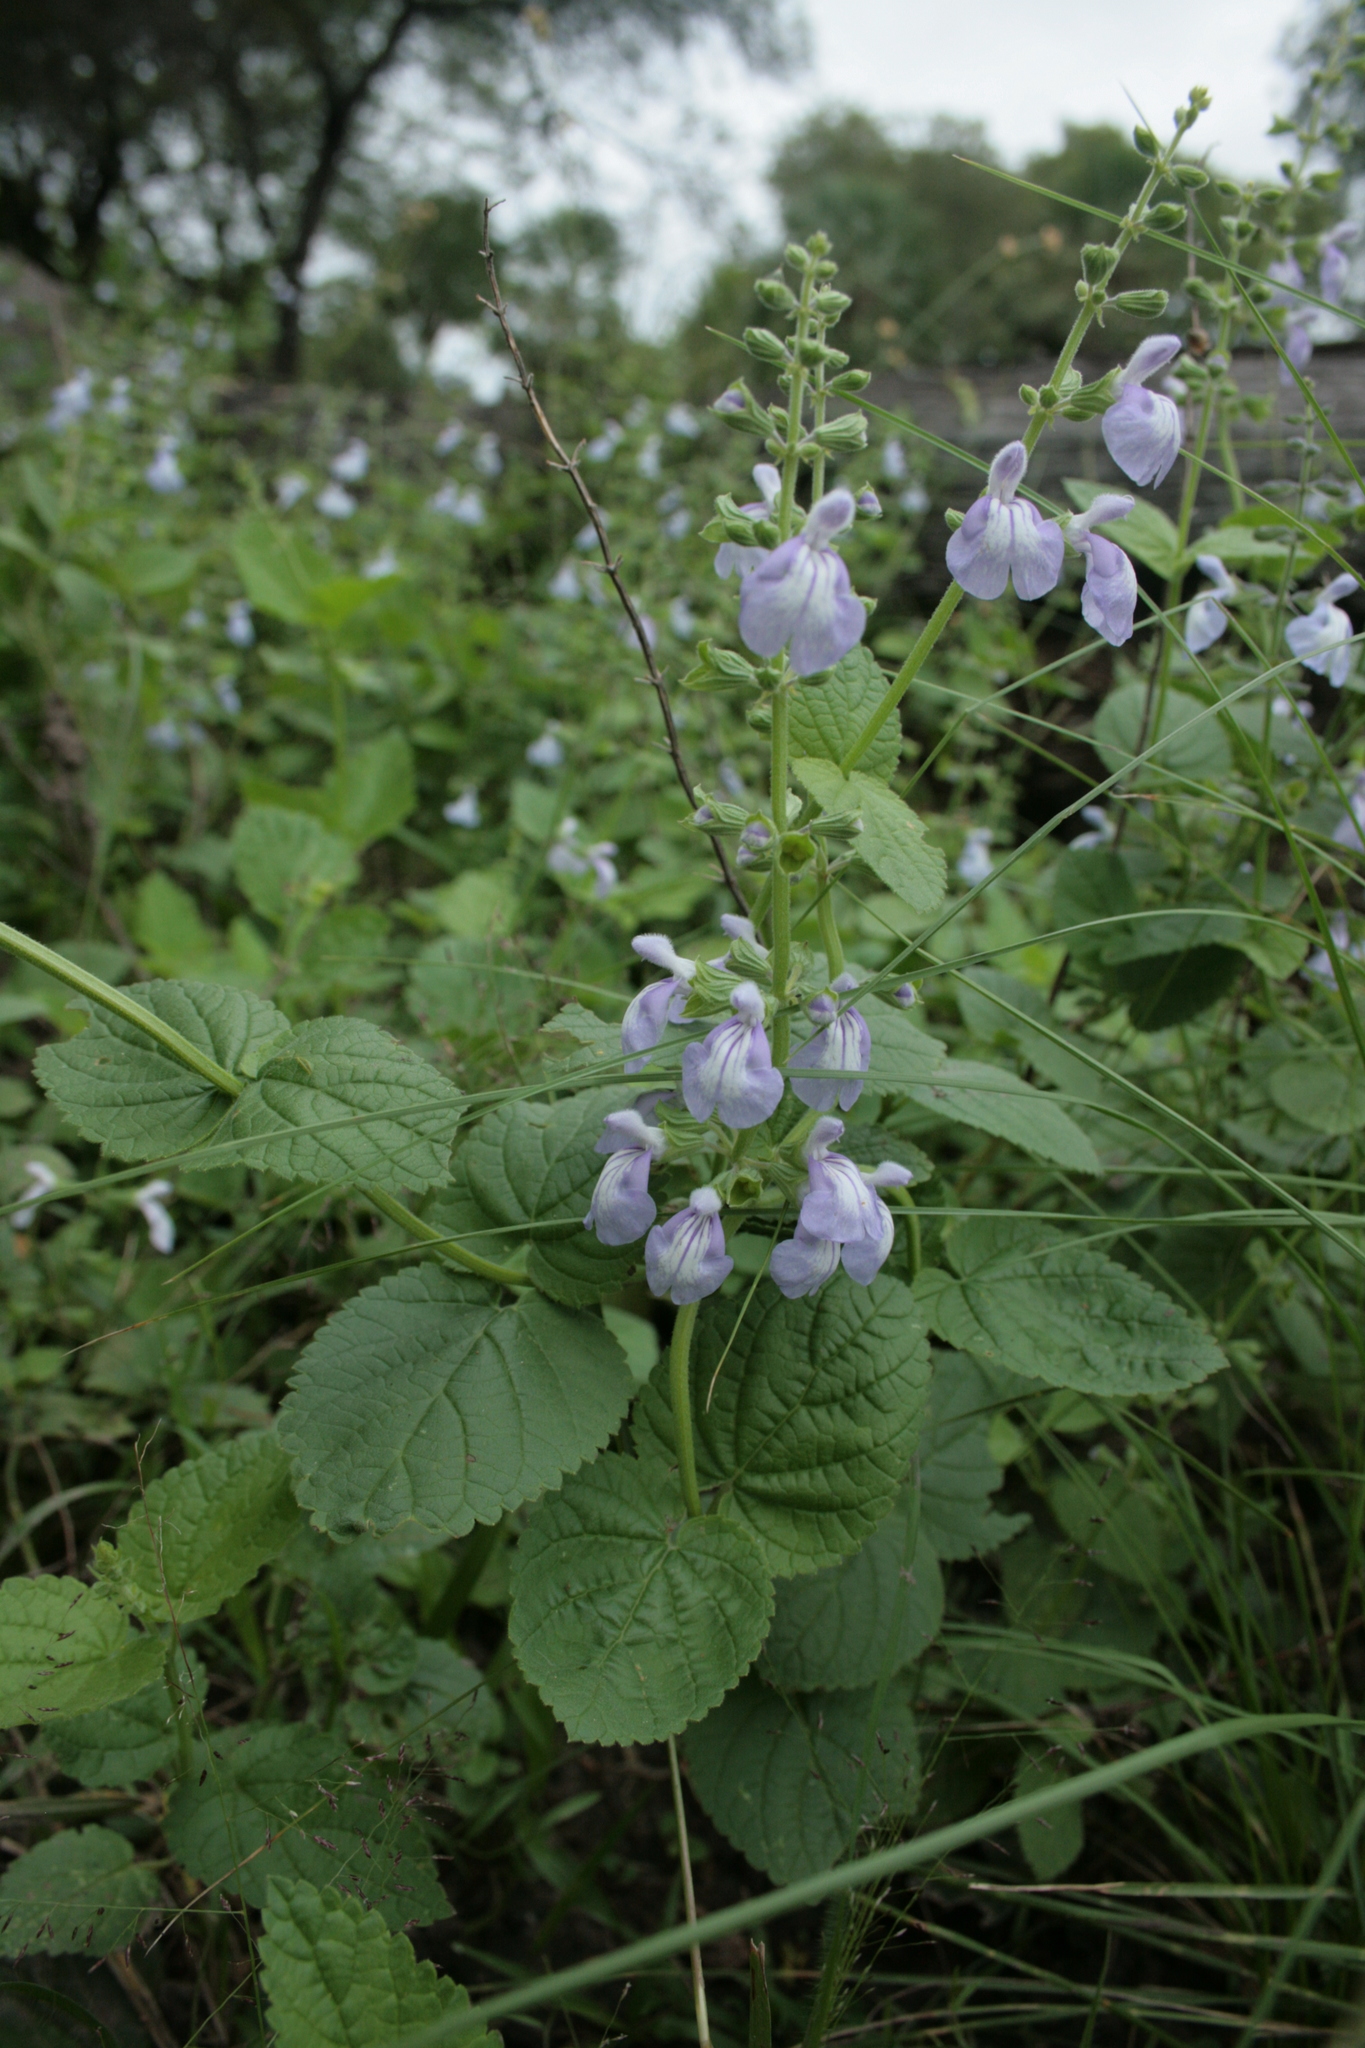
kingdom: Plantae
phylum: Tracheophyta
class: Magnoliopsida
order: Lamiales
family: Lamiaceae
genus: Salvia
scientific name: Salvia cardiophylla
